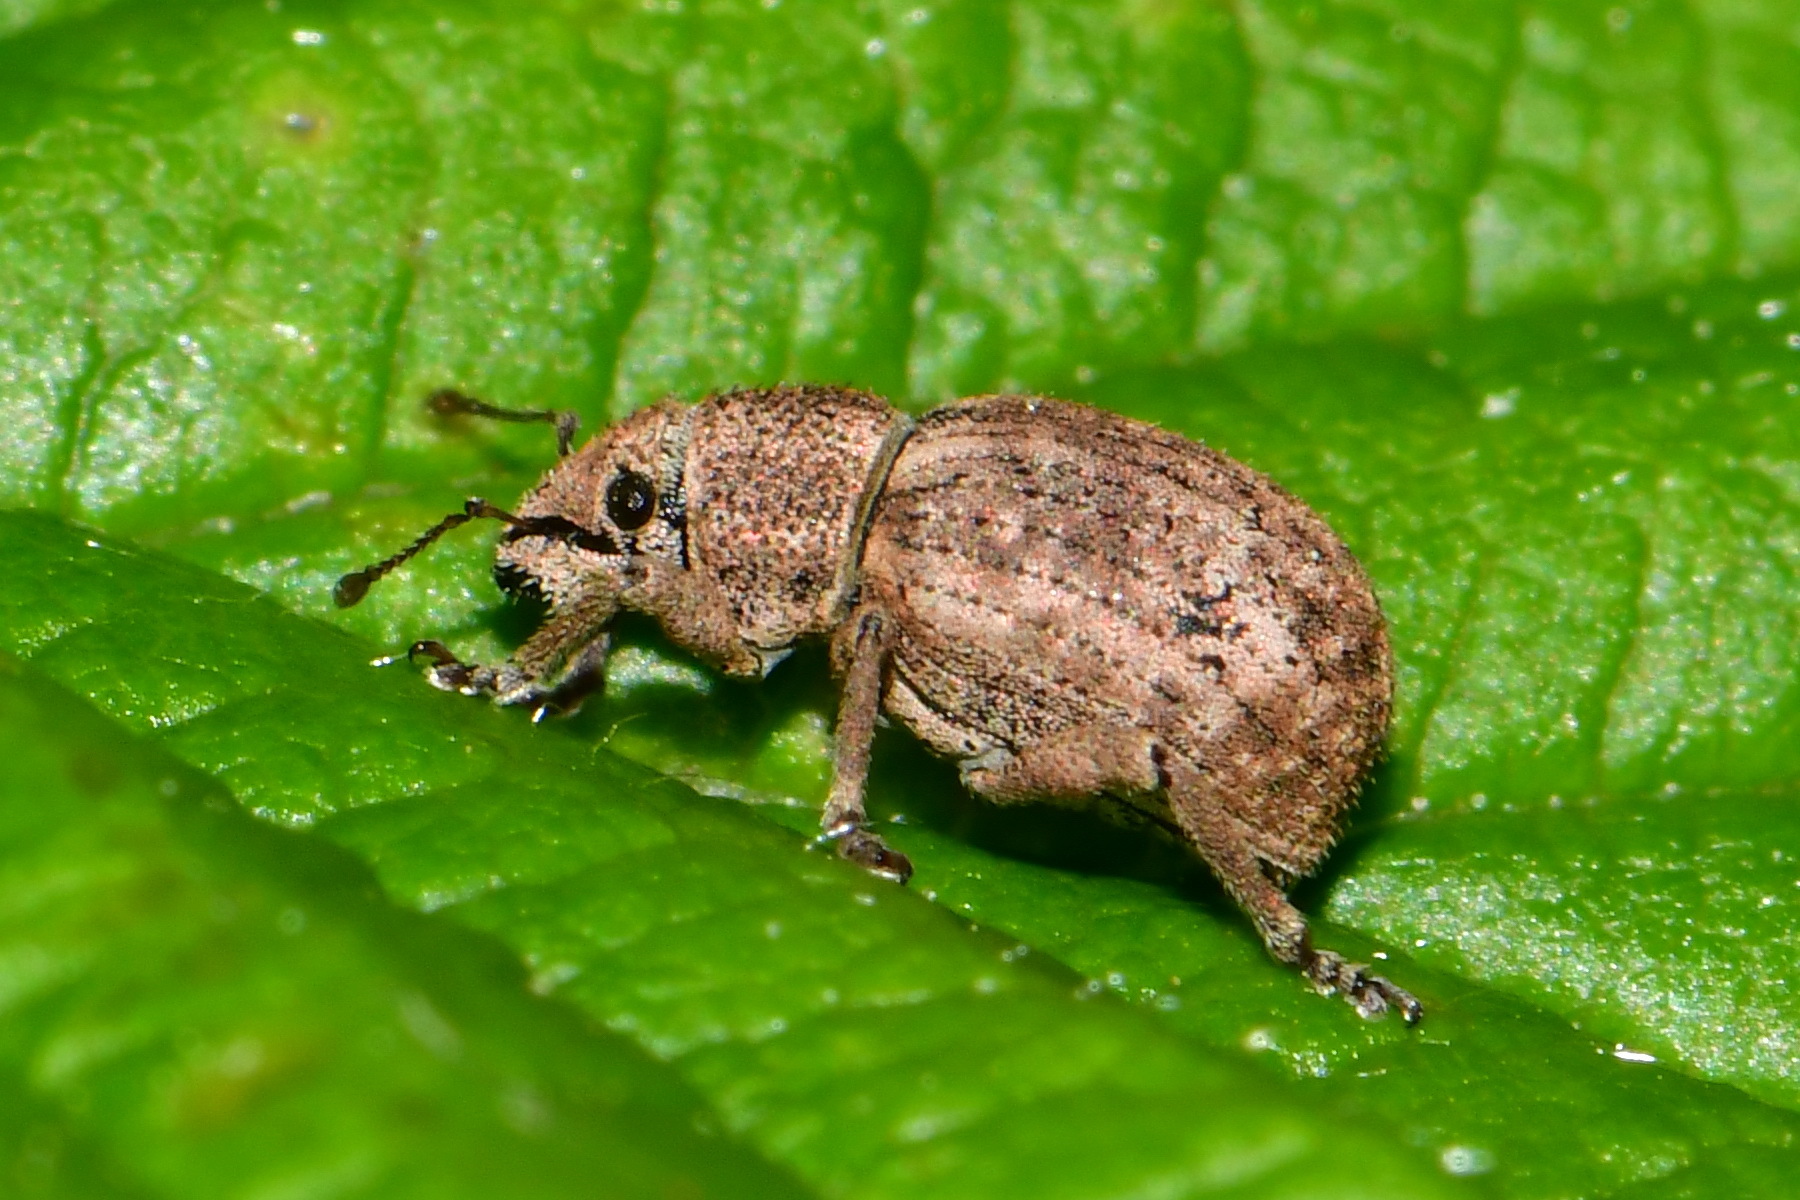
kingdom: Animalia
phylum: Arthropoda
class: Insecta
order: Coleoptera
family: Curculionidae
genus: Strophosoma
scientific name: Strophosoma capitatum
